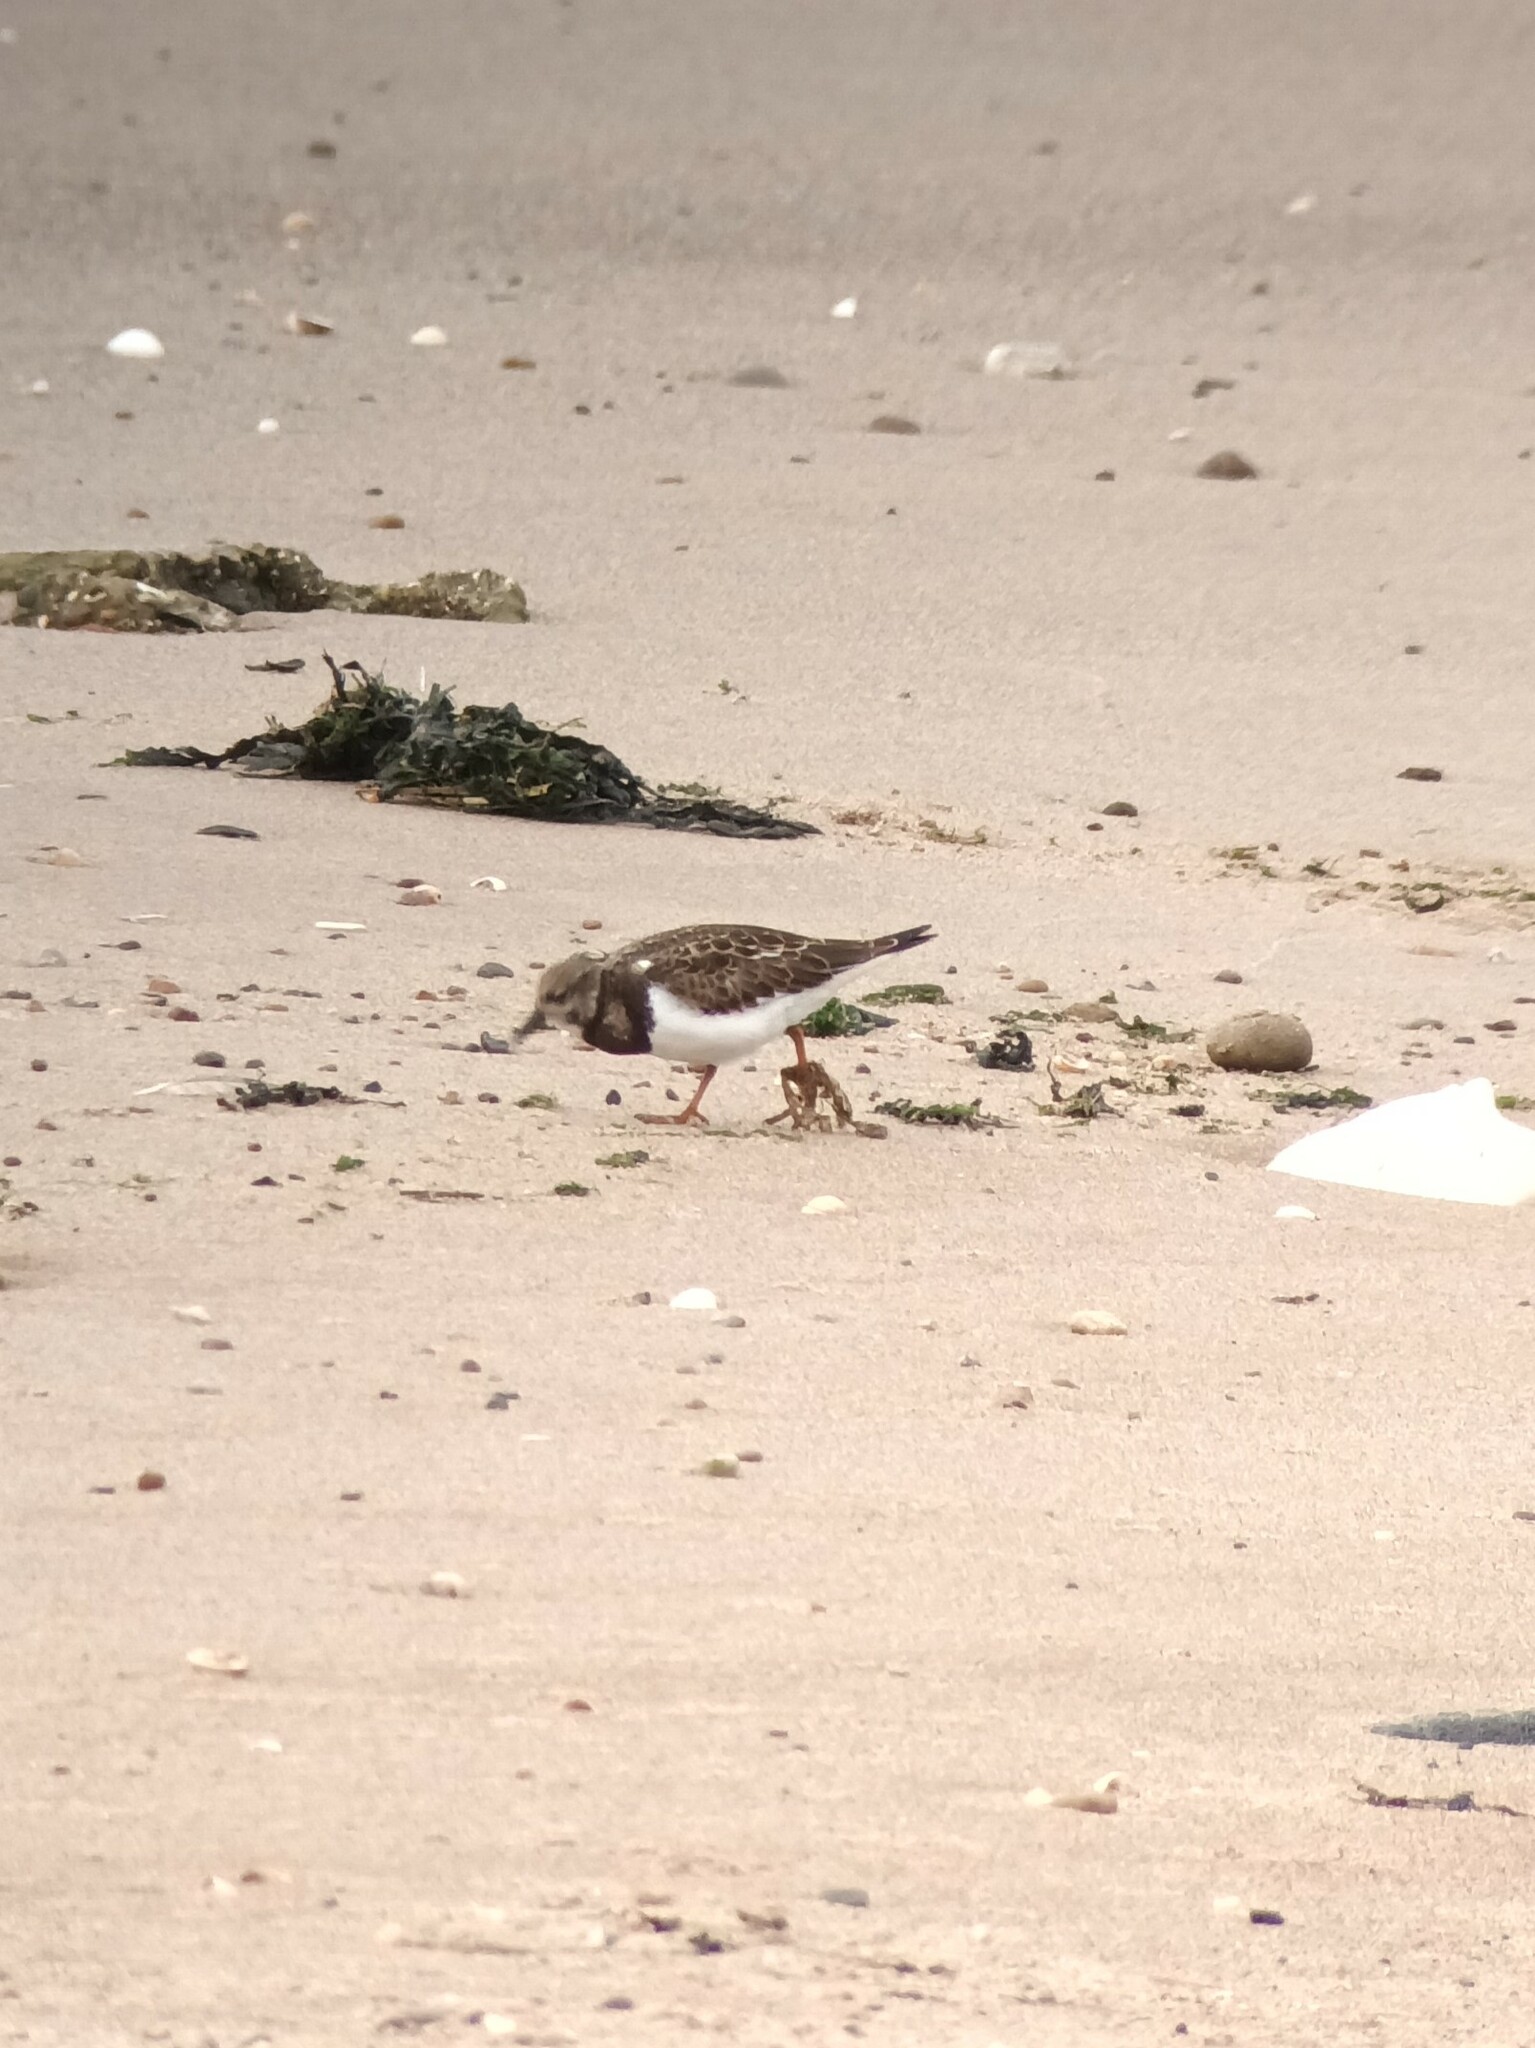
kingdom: Animalia
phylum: Chordata
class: Aves
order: Charadriiformes
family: Scolopacidae
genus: Arenaria
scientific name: Arenaria interpres
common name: Ruddy turnstone
